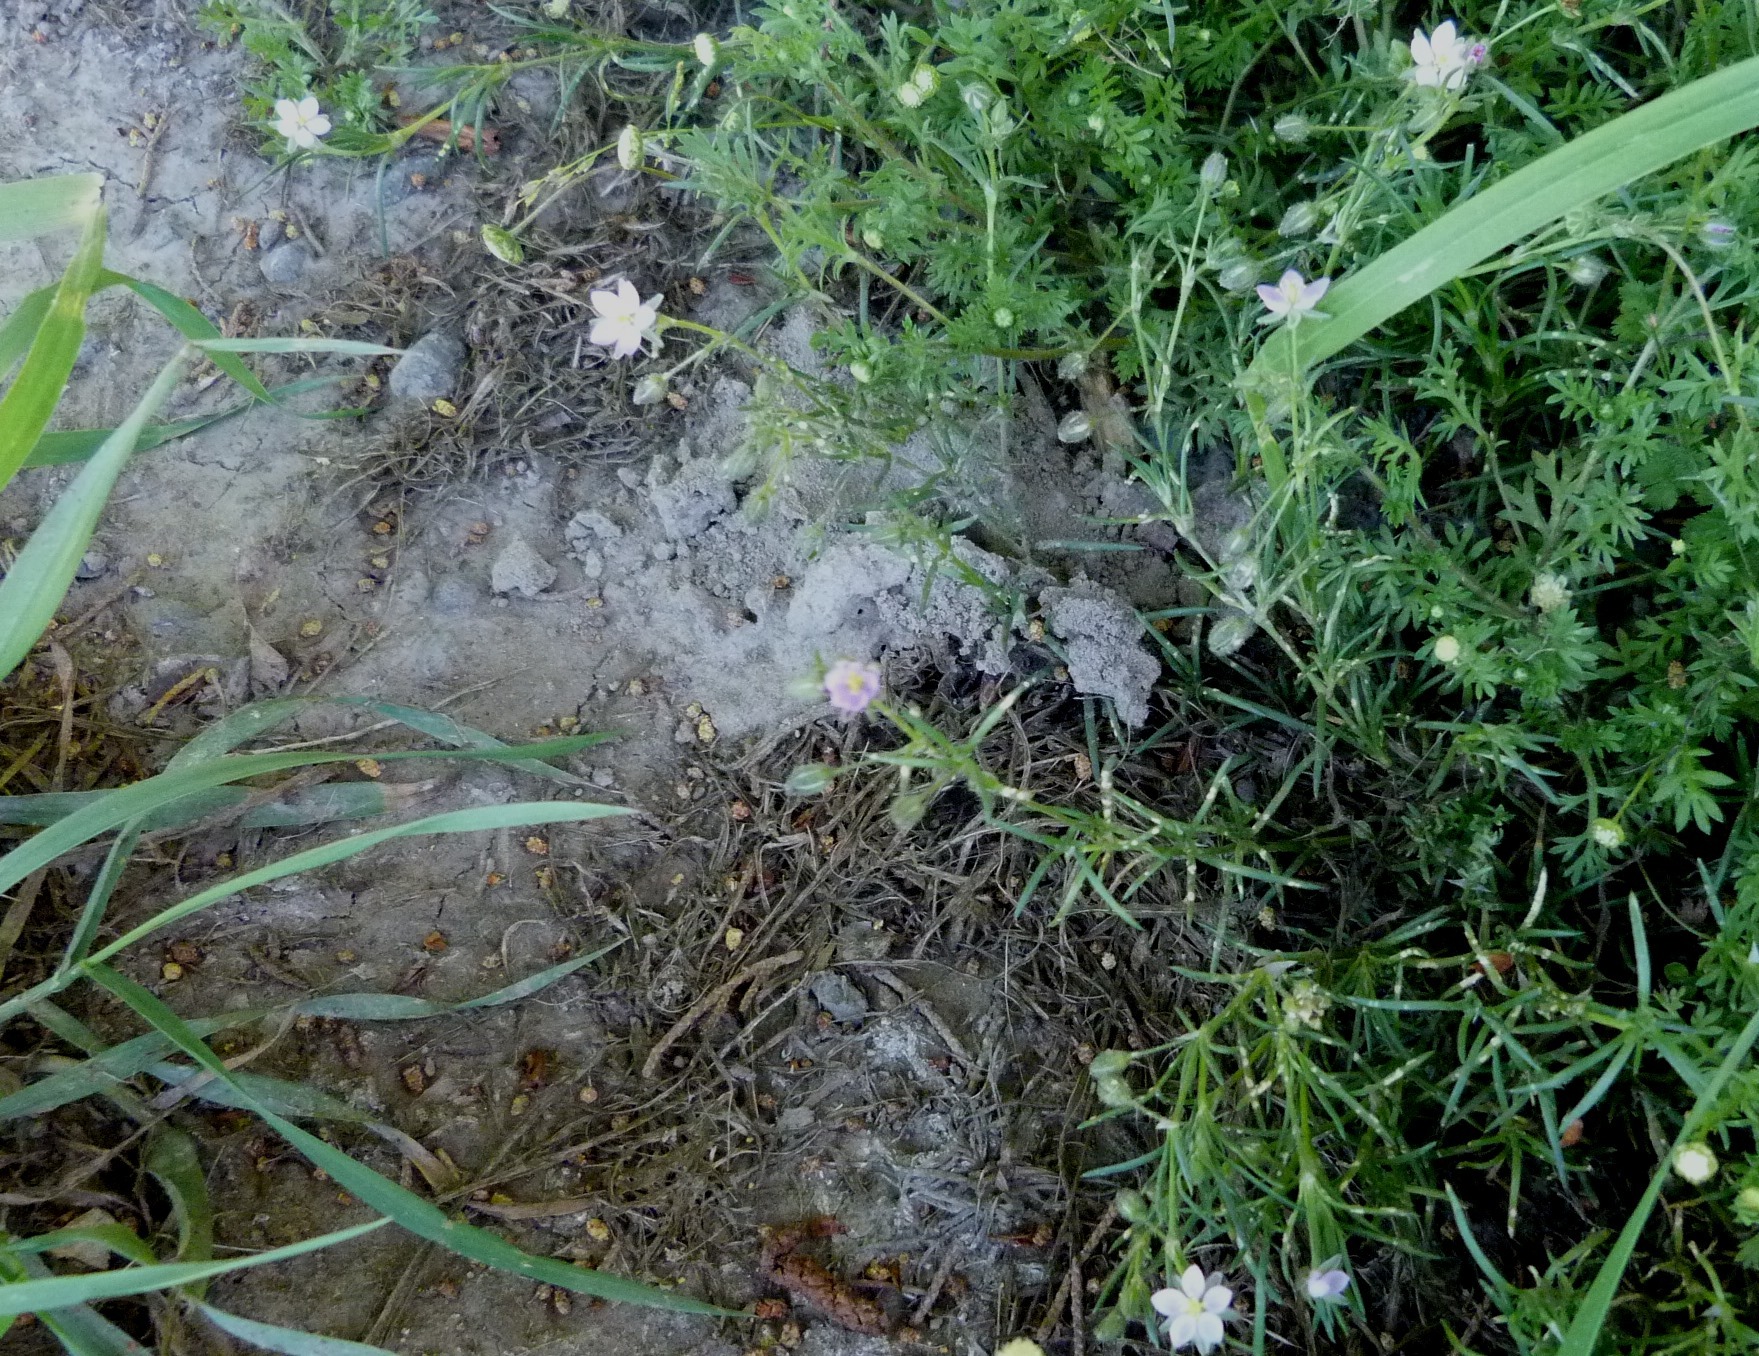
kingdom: Plantae
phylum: Tracheophyta
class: Magnoliopsida
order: Caryophyllales
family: Caryophyllaceae
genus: Spergularia
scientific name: Spergularia rubra
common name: Red sand-spurrey
